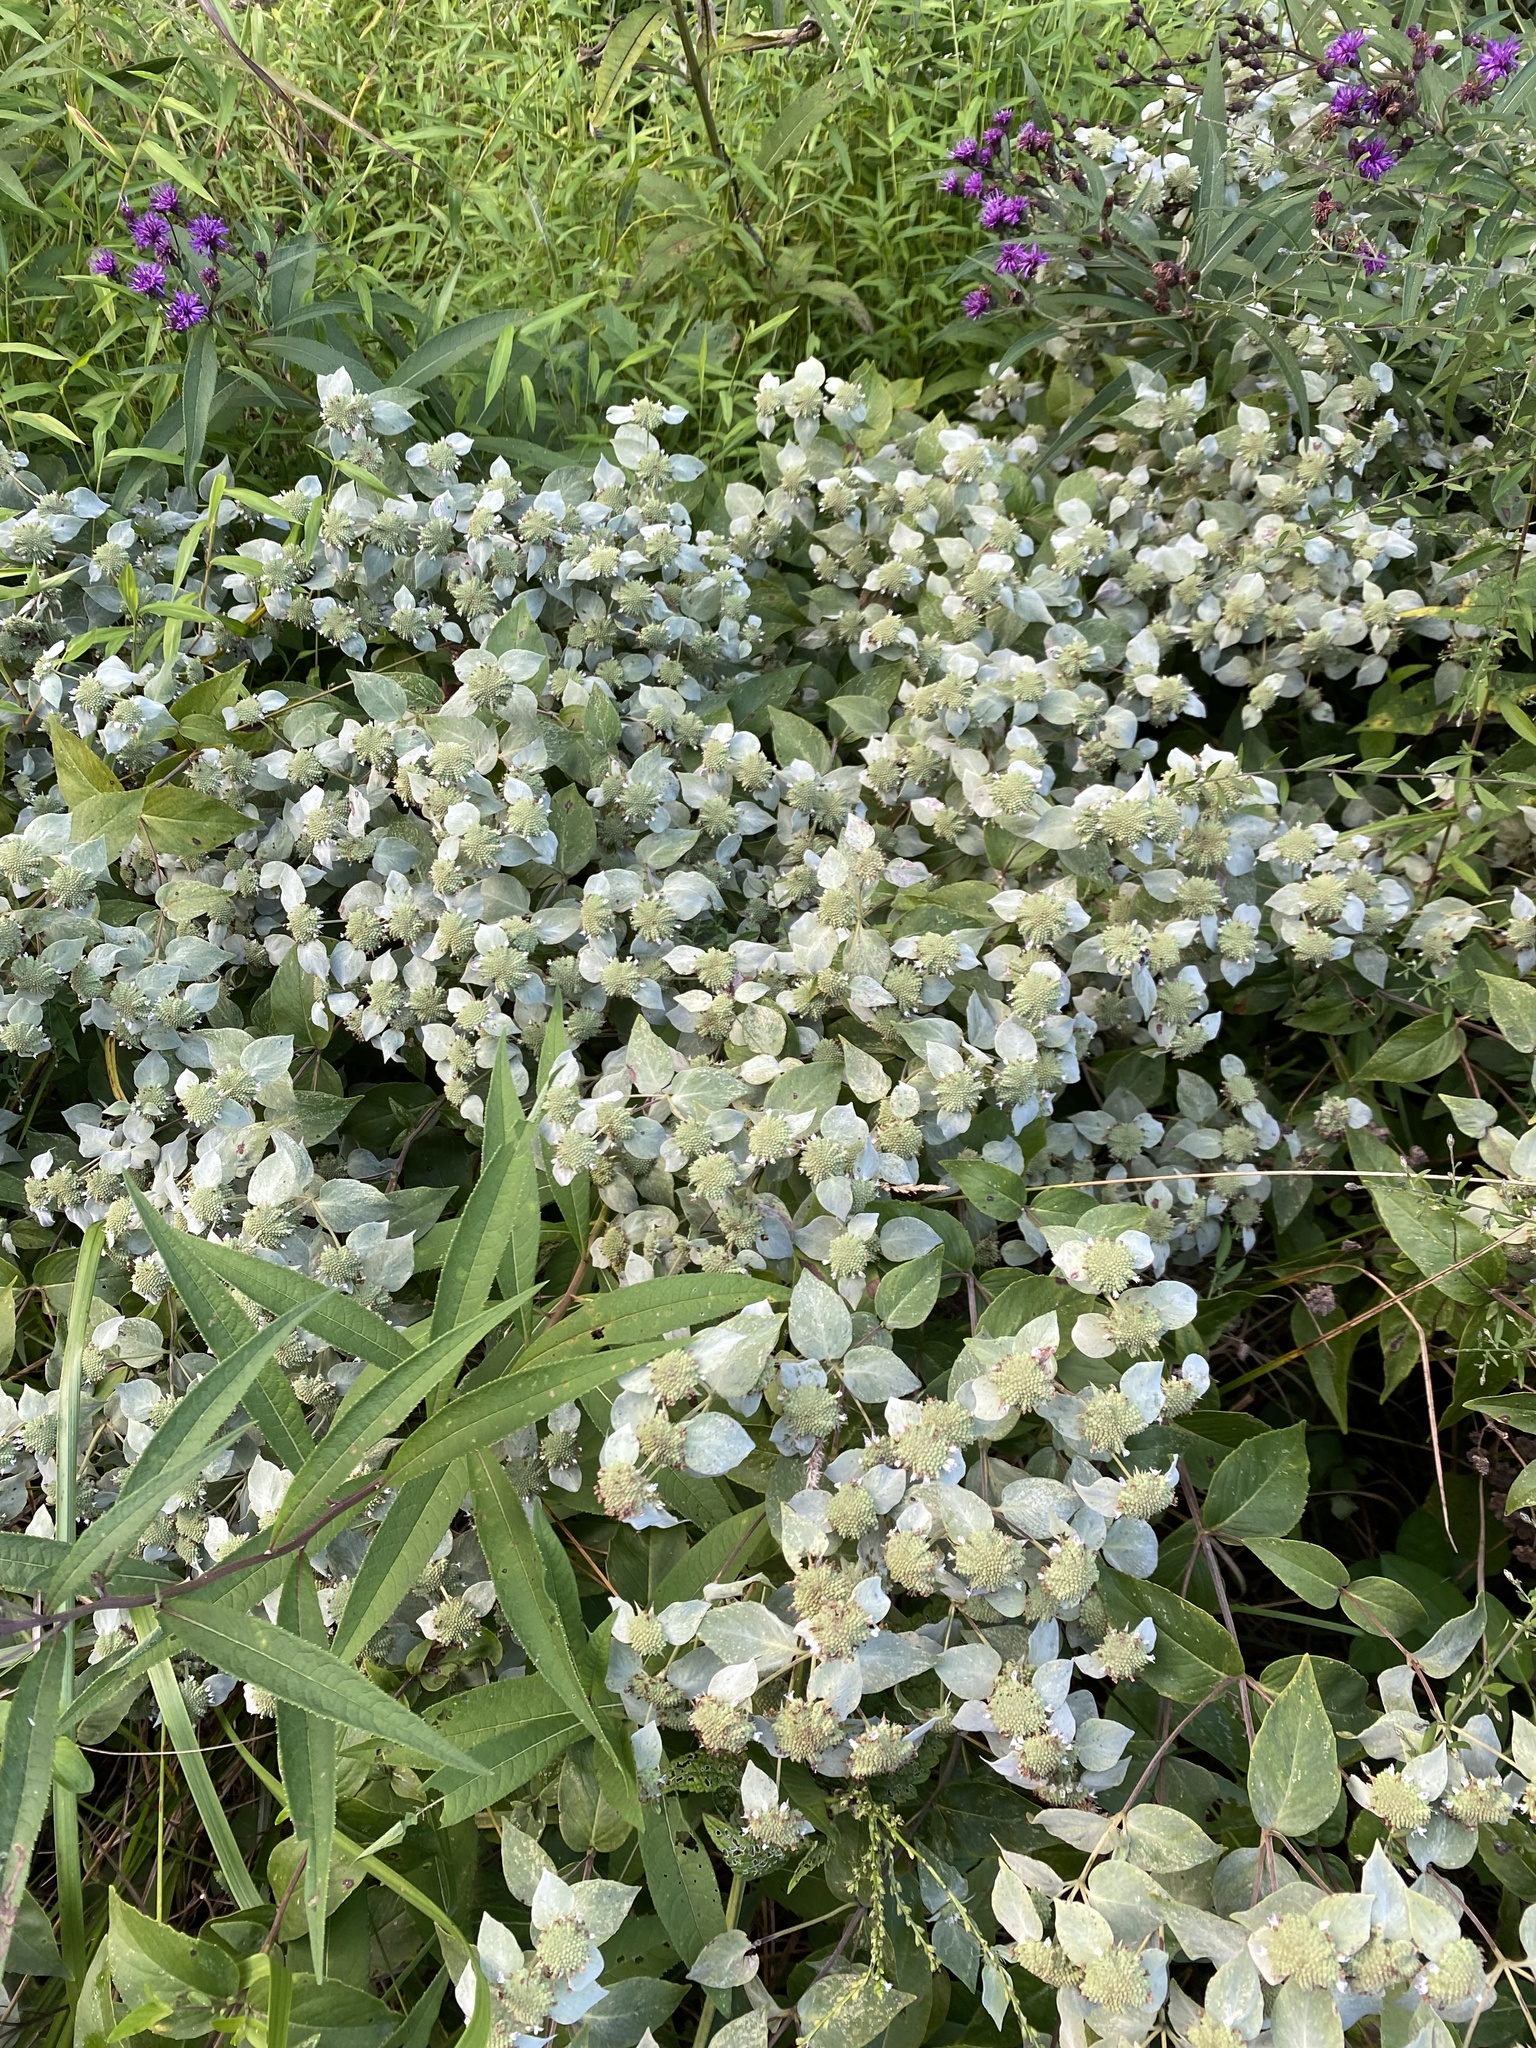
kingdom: Plantae
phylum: Tracheophyta
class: Magnoliopsida
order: Lamiales
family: Lamiaceae
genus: Pycnanthemum
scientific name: Pycnanthemum muticum
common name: Blunt mountain-mint
